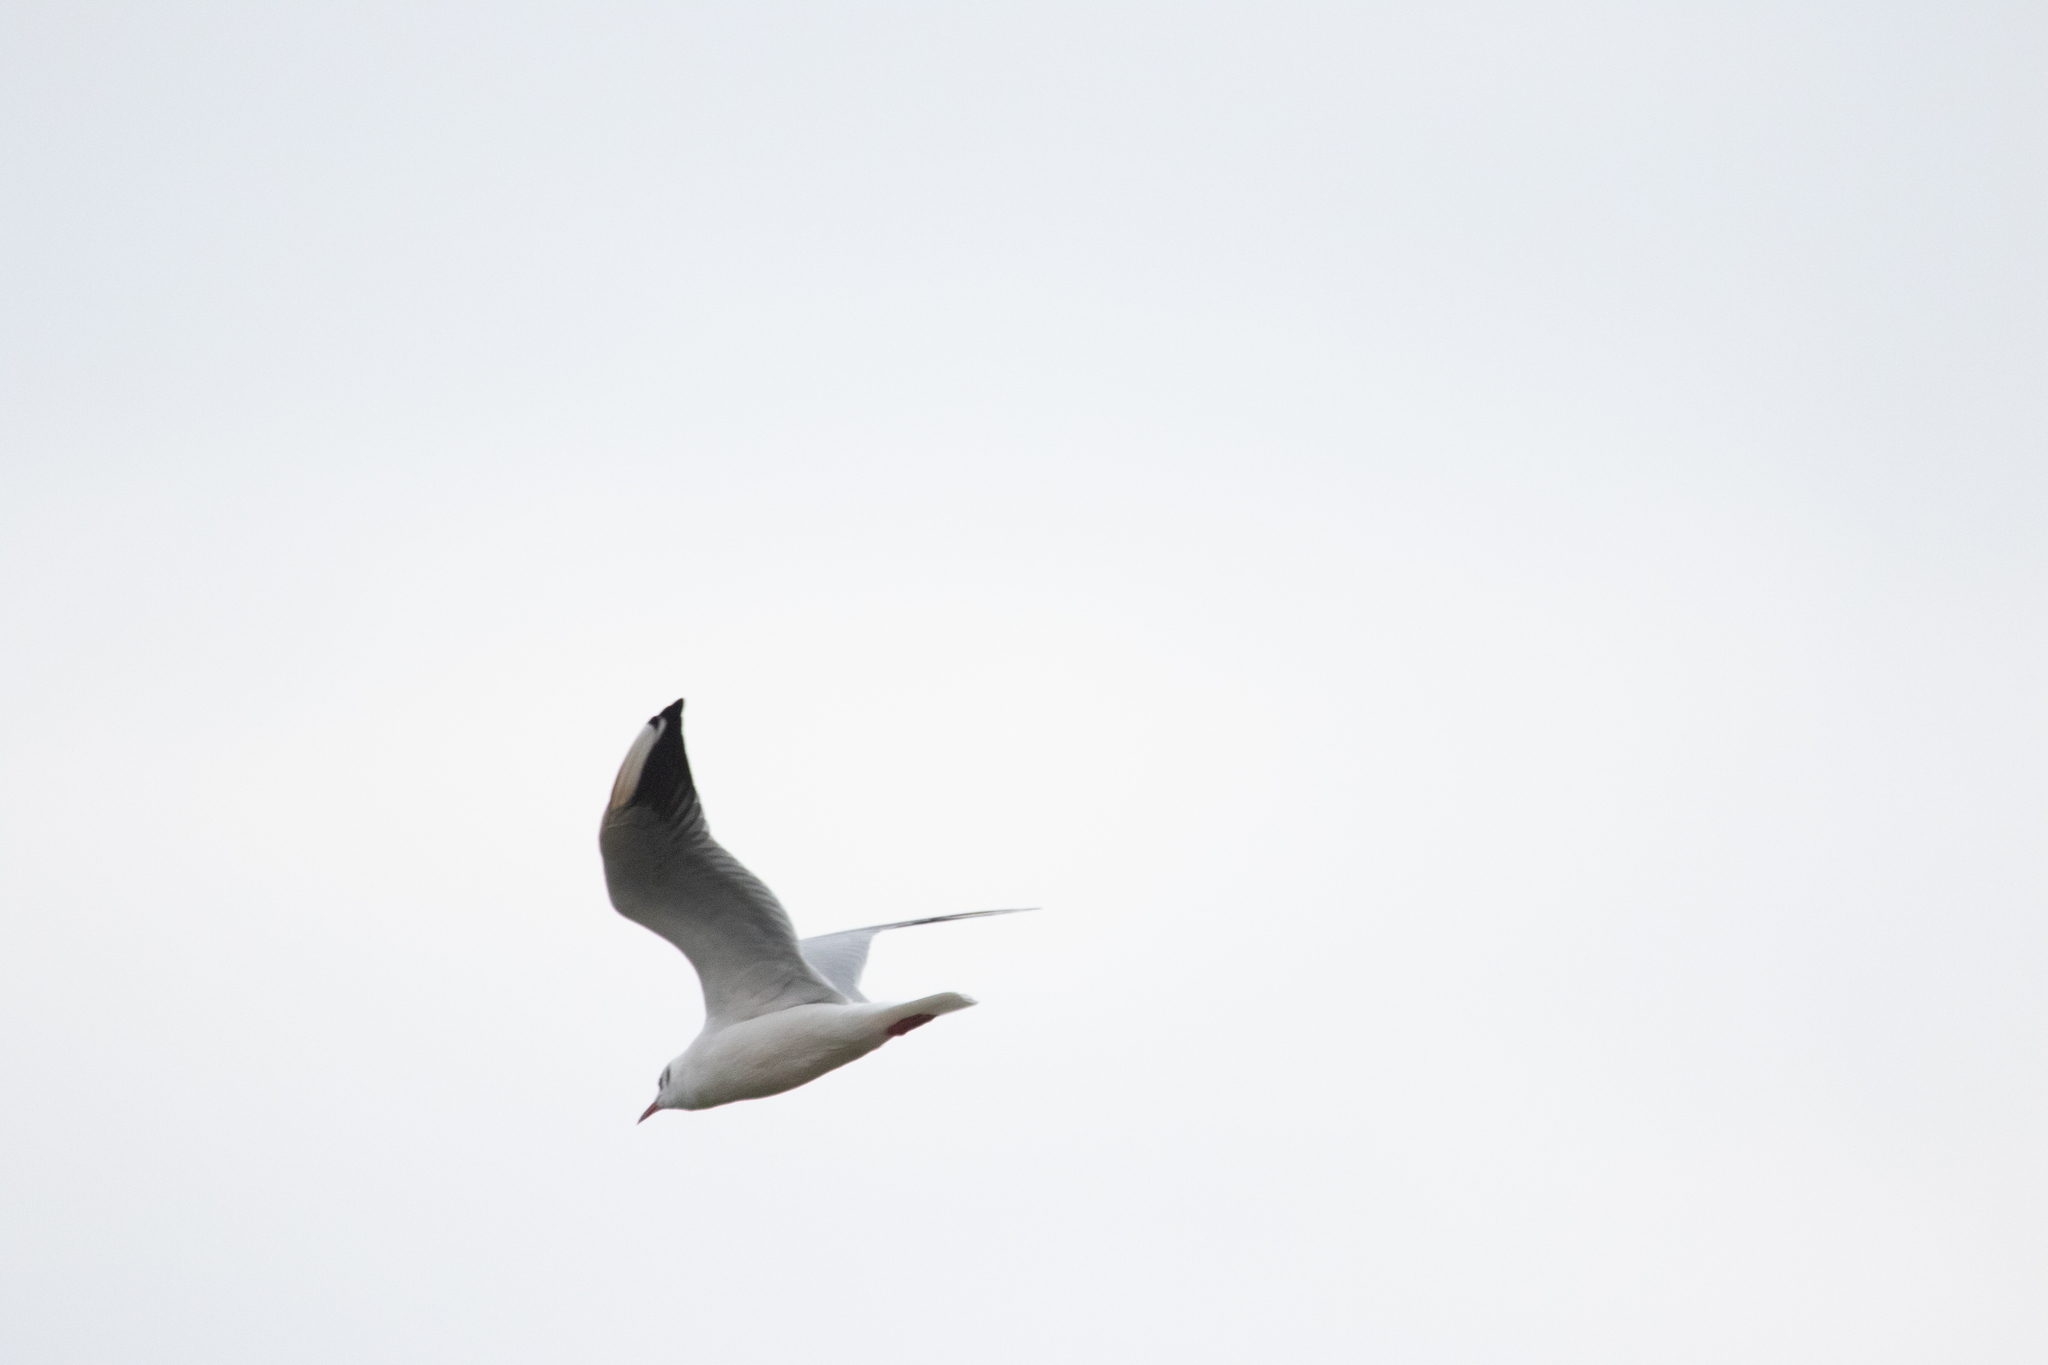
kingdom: Animalia
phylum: Chordata
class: Aves
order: Charadriiformes
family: Laridae
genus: Chroicocephalus
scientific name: Chroicocephalus ridibundus
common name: Black-headed gull
